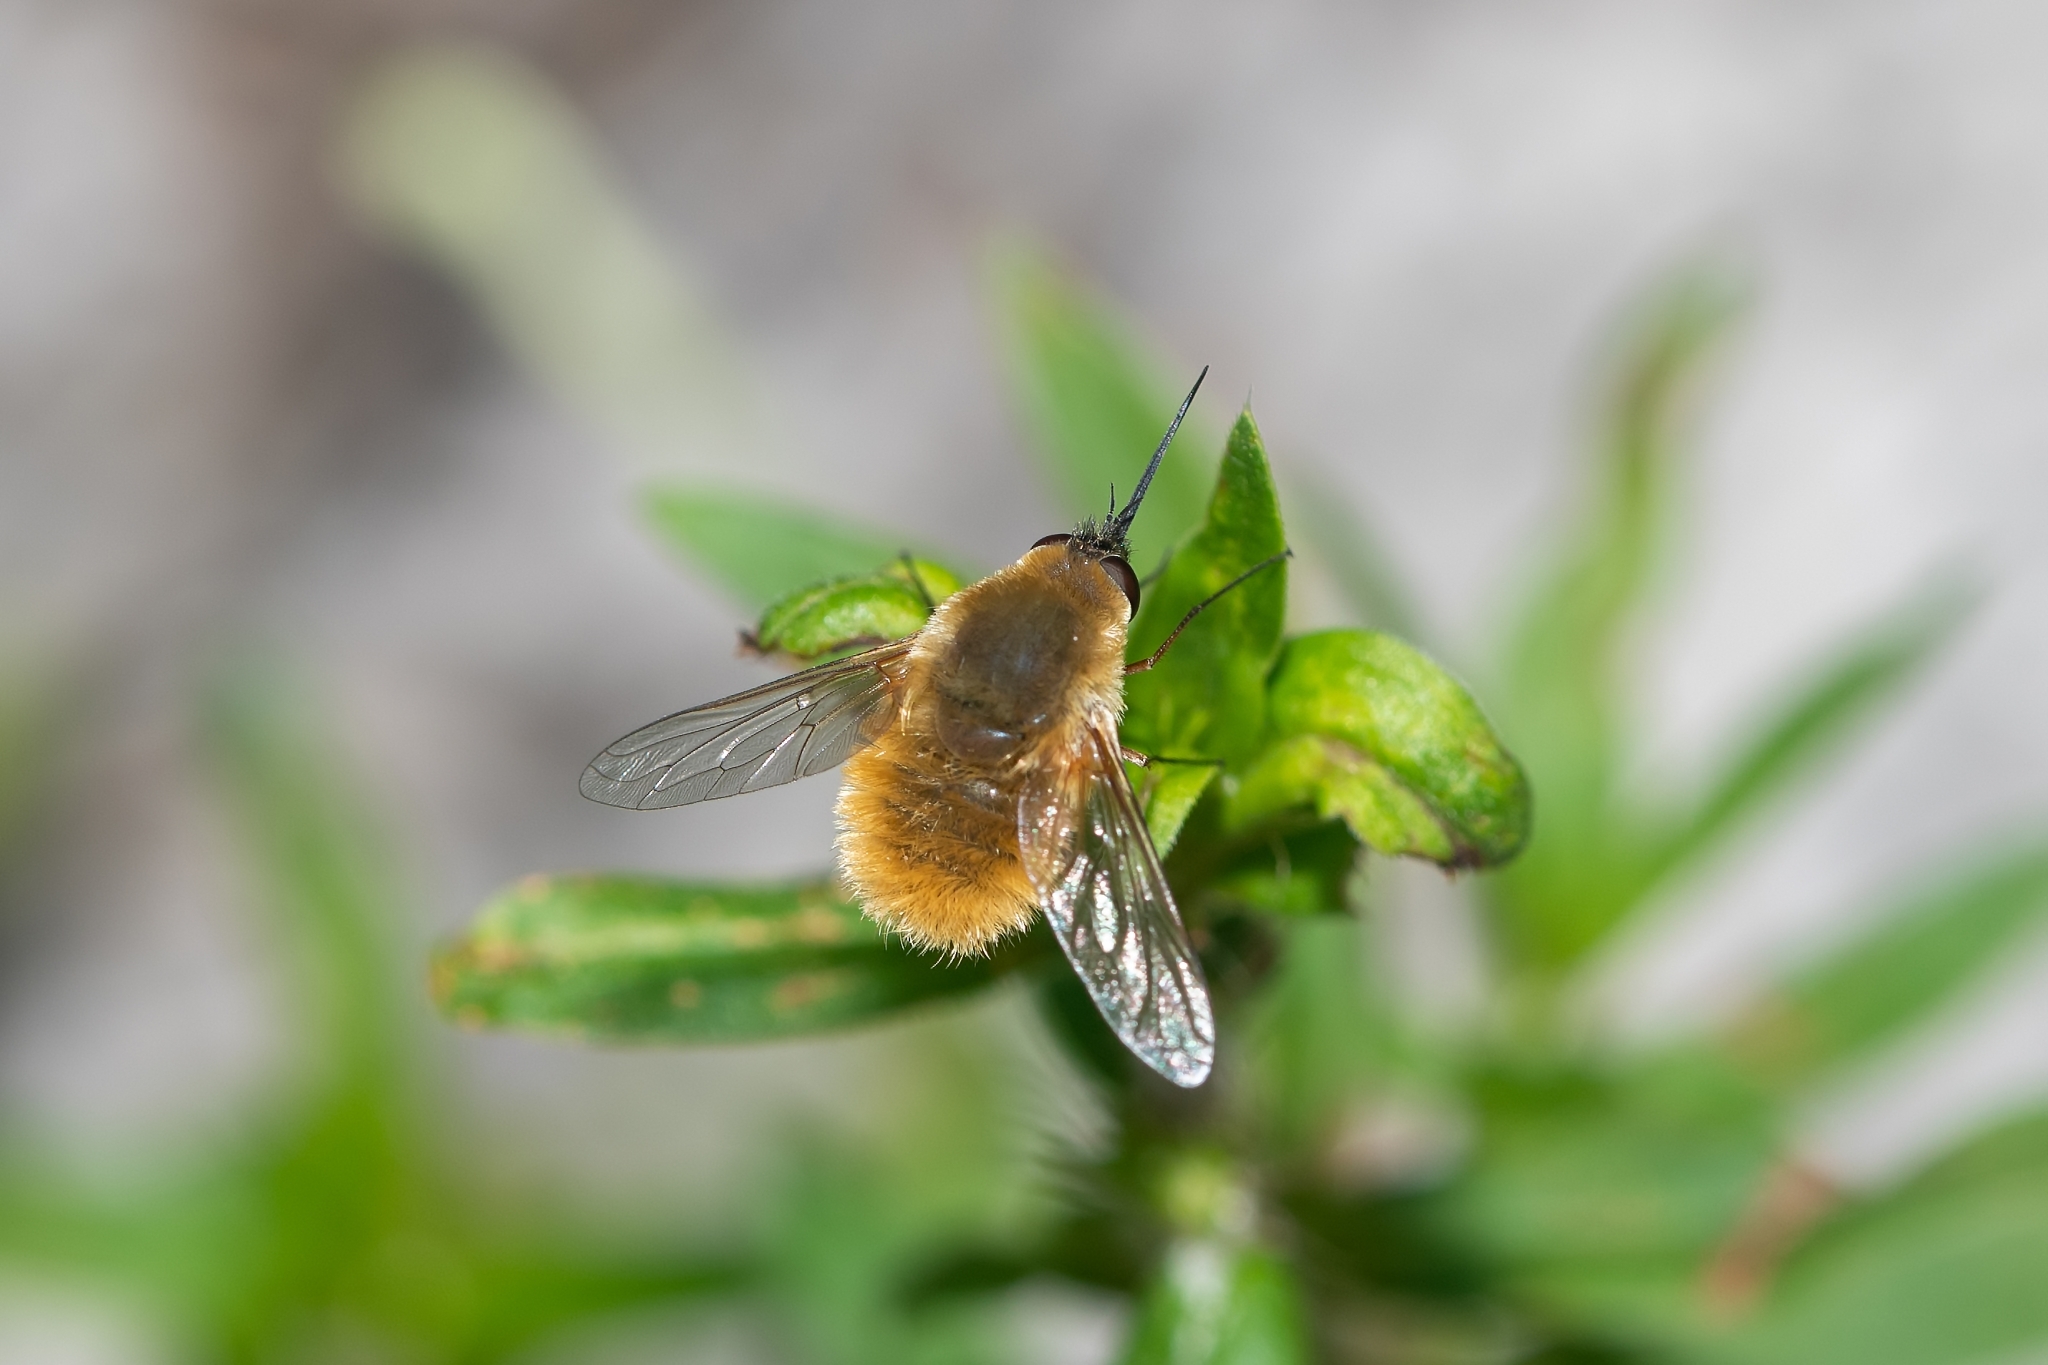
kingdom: Animalia
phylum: Arthropoda
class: Insecta
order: Diptera
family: Bombyliidae
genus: Systoechus
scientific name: Systoechus solitus
